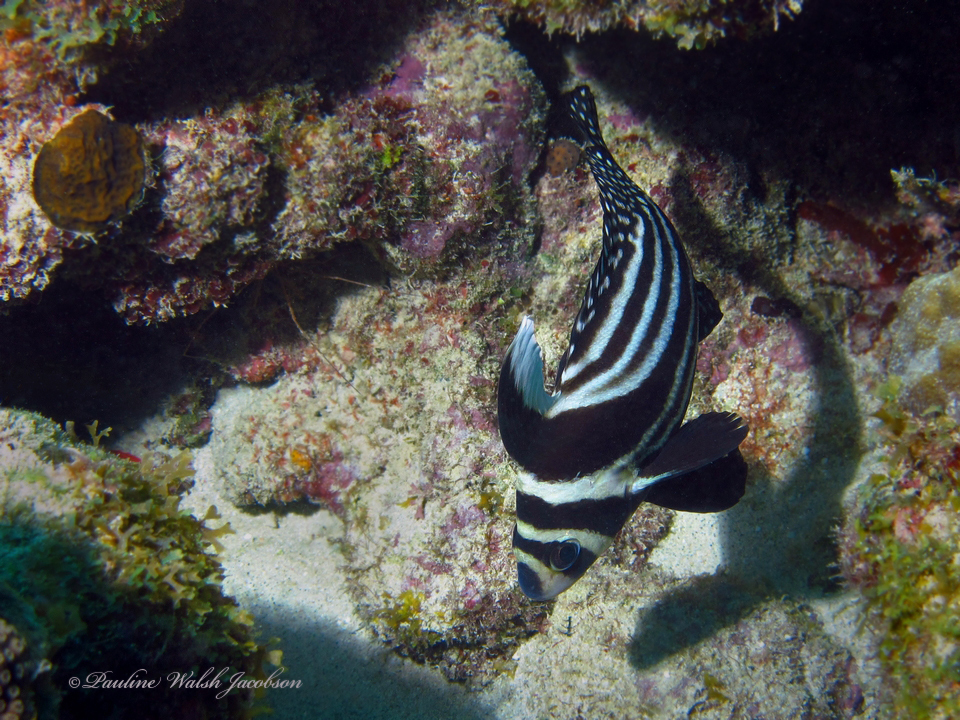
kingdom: Animalia
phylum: Chordata
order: Perciformes
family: Sciaenidae
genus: Equetus
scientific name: Equetus punctatus
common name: Spotted drum
